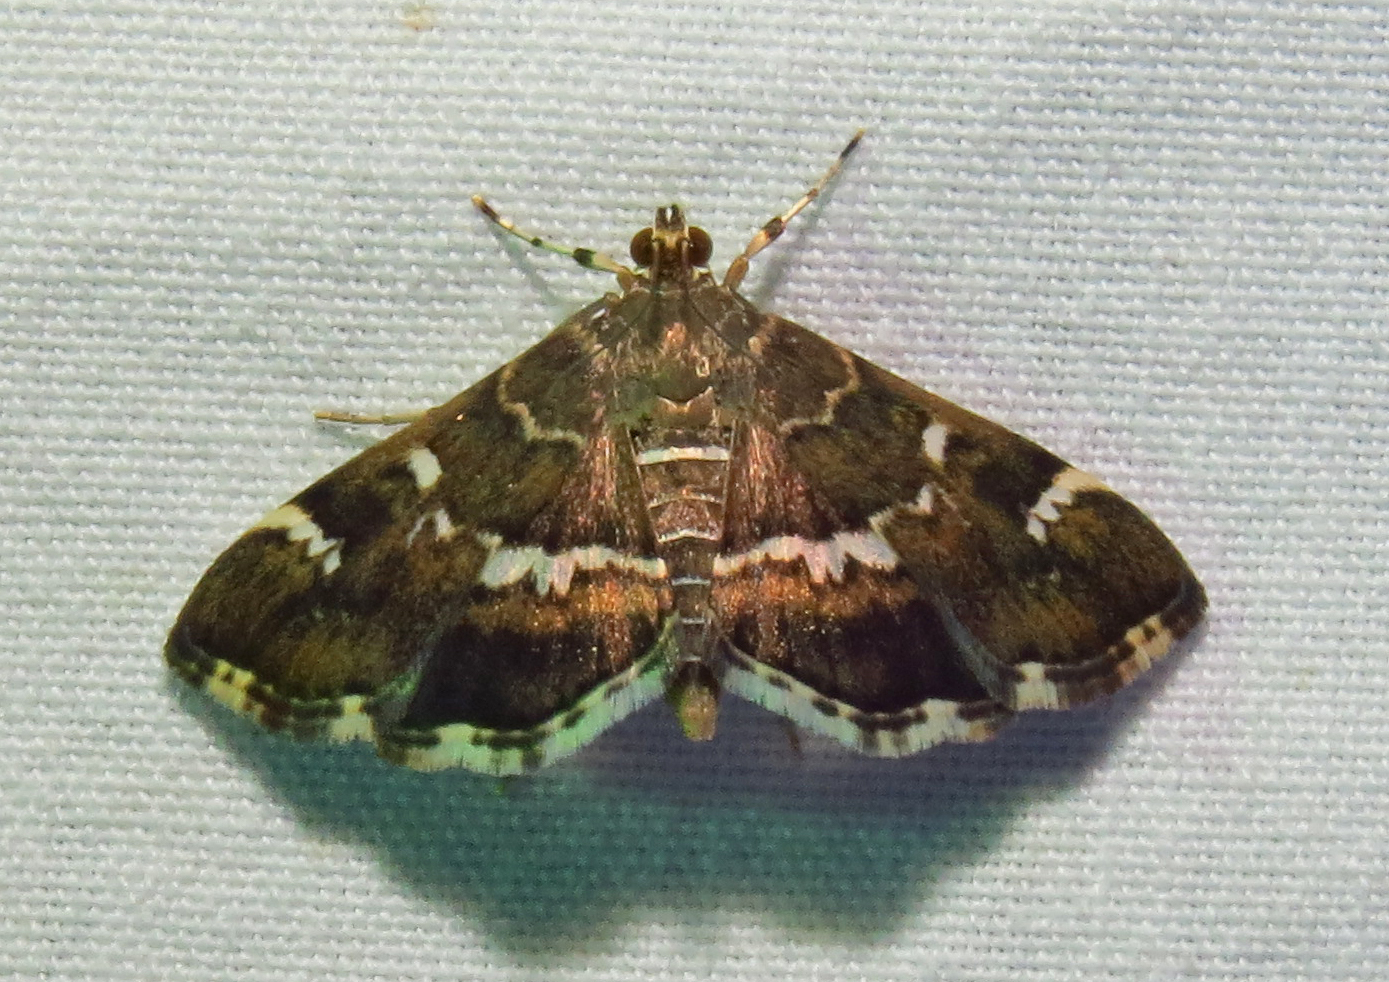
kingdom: Animalia
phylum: Arthropoda
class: Insecta
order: Lepidoptera
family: Crambidae
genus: Hymenia
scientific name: Hymenia perspectalis
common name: Spotted beet webworm
